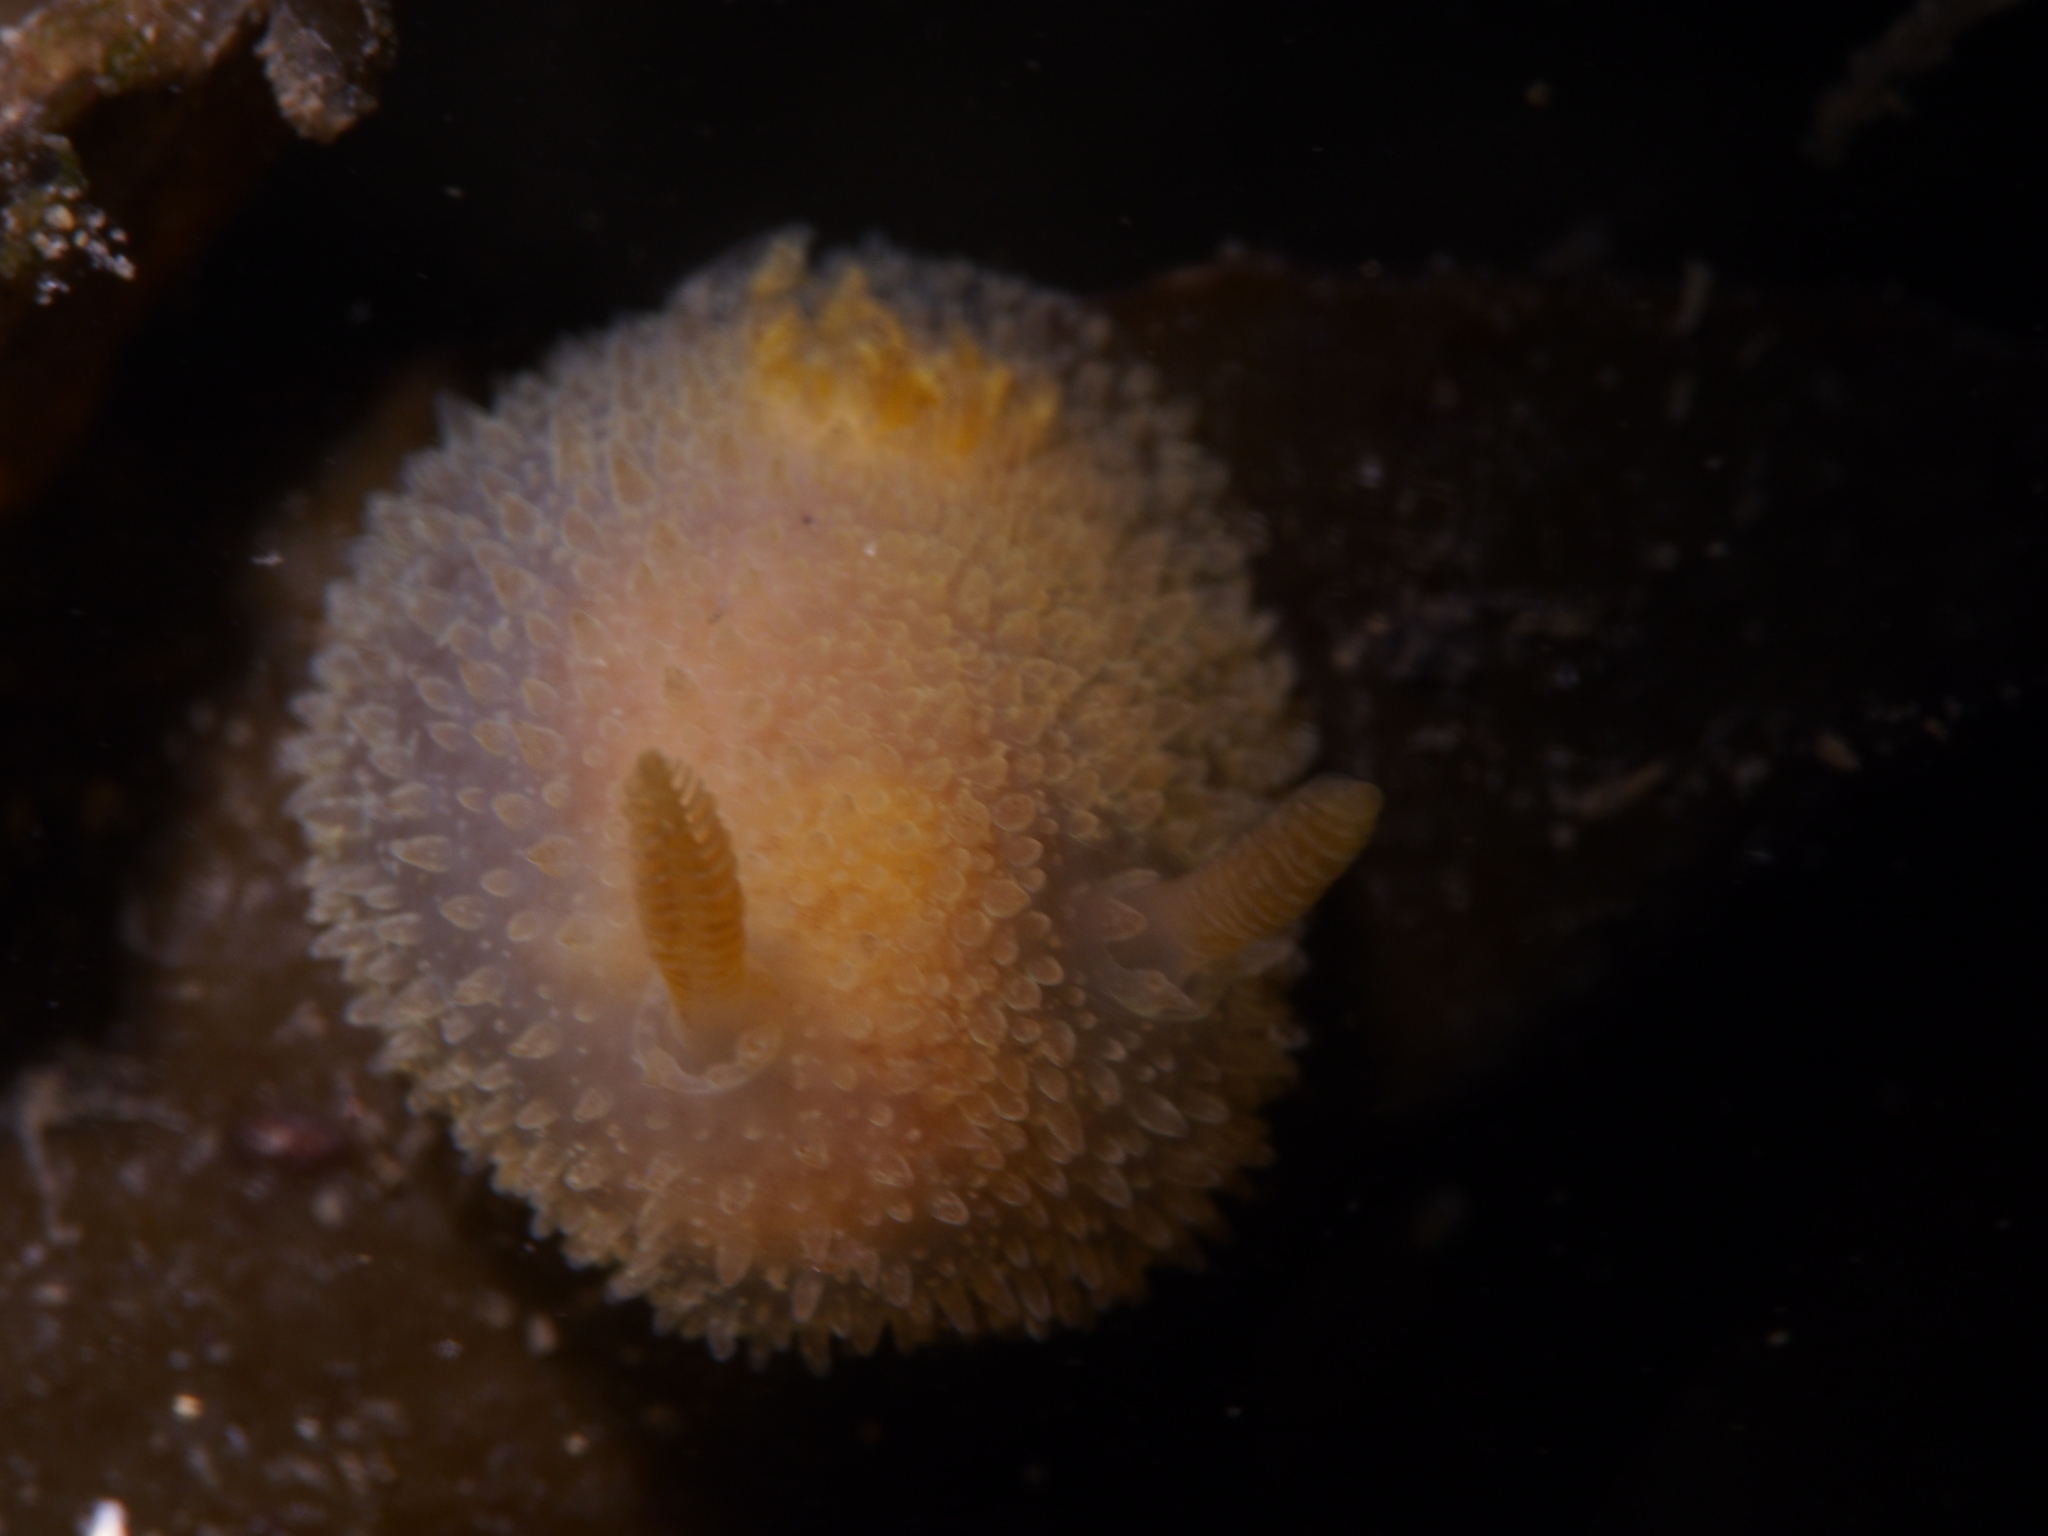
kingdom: Animalia
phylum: Mollusca
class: Gastropoda
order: Nudibranchia
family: Onchidorididae
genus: Acanthodoris
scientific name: Acanthodoris pilosa
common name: Hairy spiny doris
